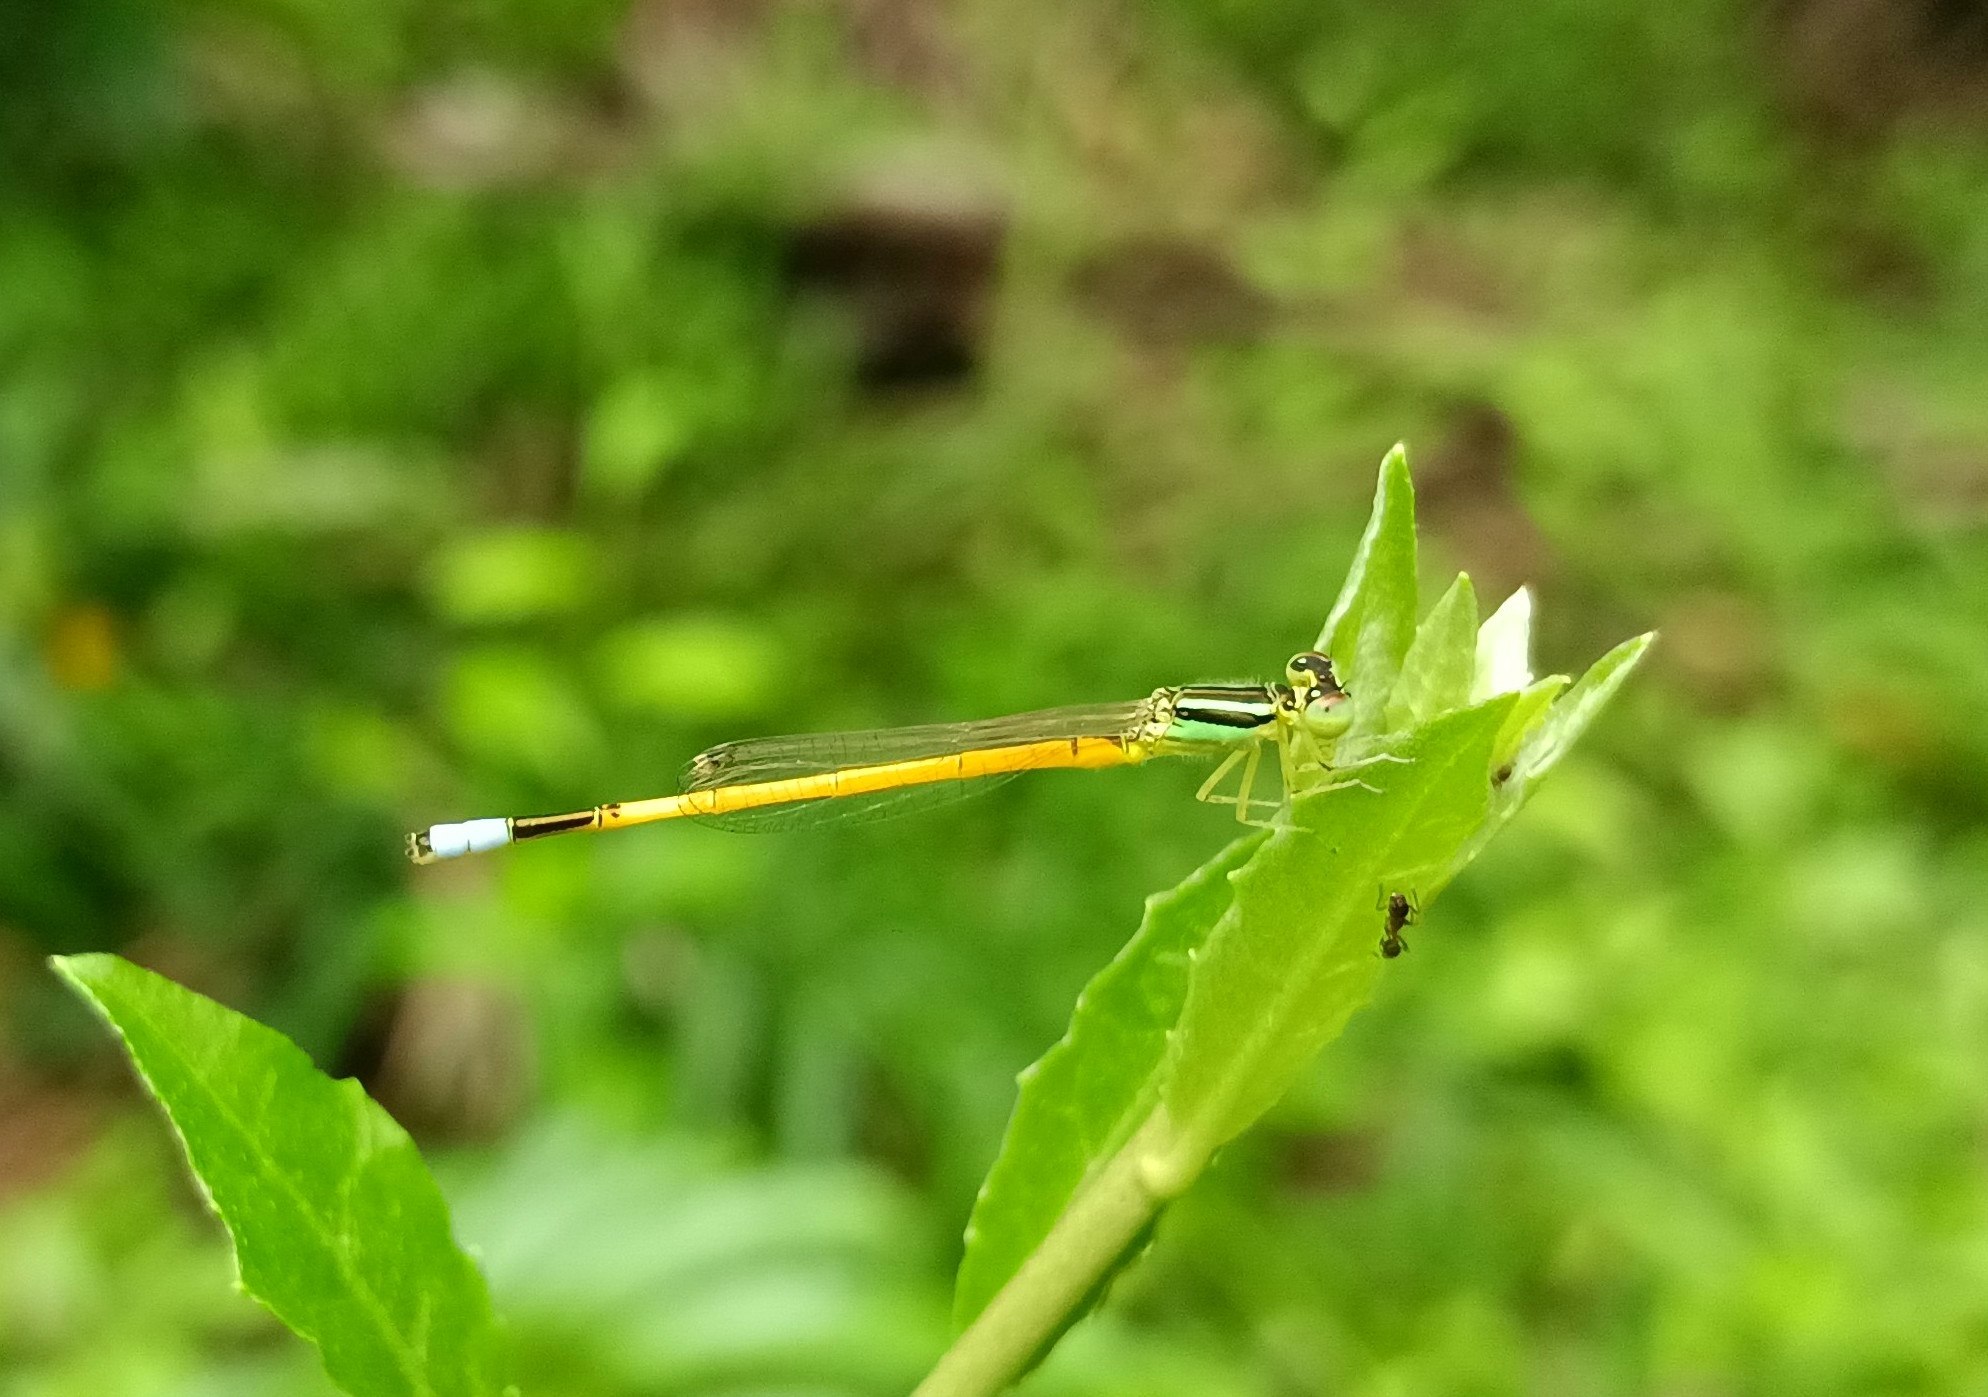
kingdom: Animalia
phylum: Arthropoda
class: Insecta
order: Odonata
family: Coenagrionidae
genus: Ischnura
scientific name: Ischnura rubilio
